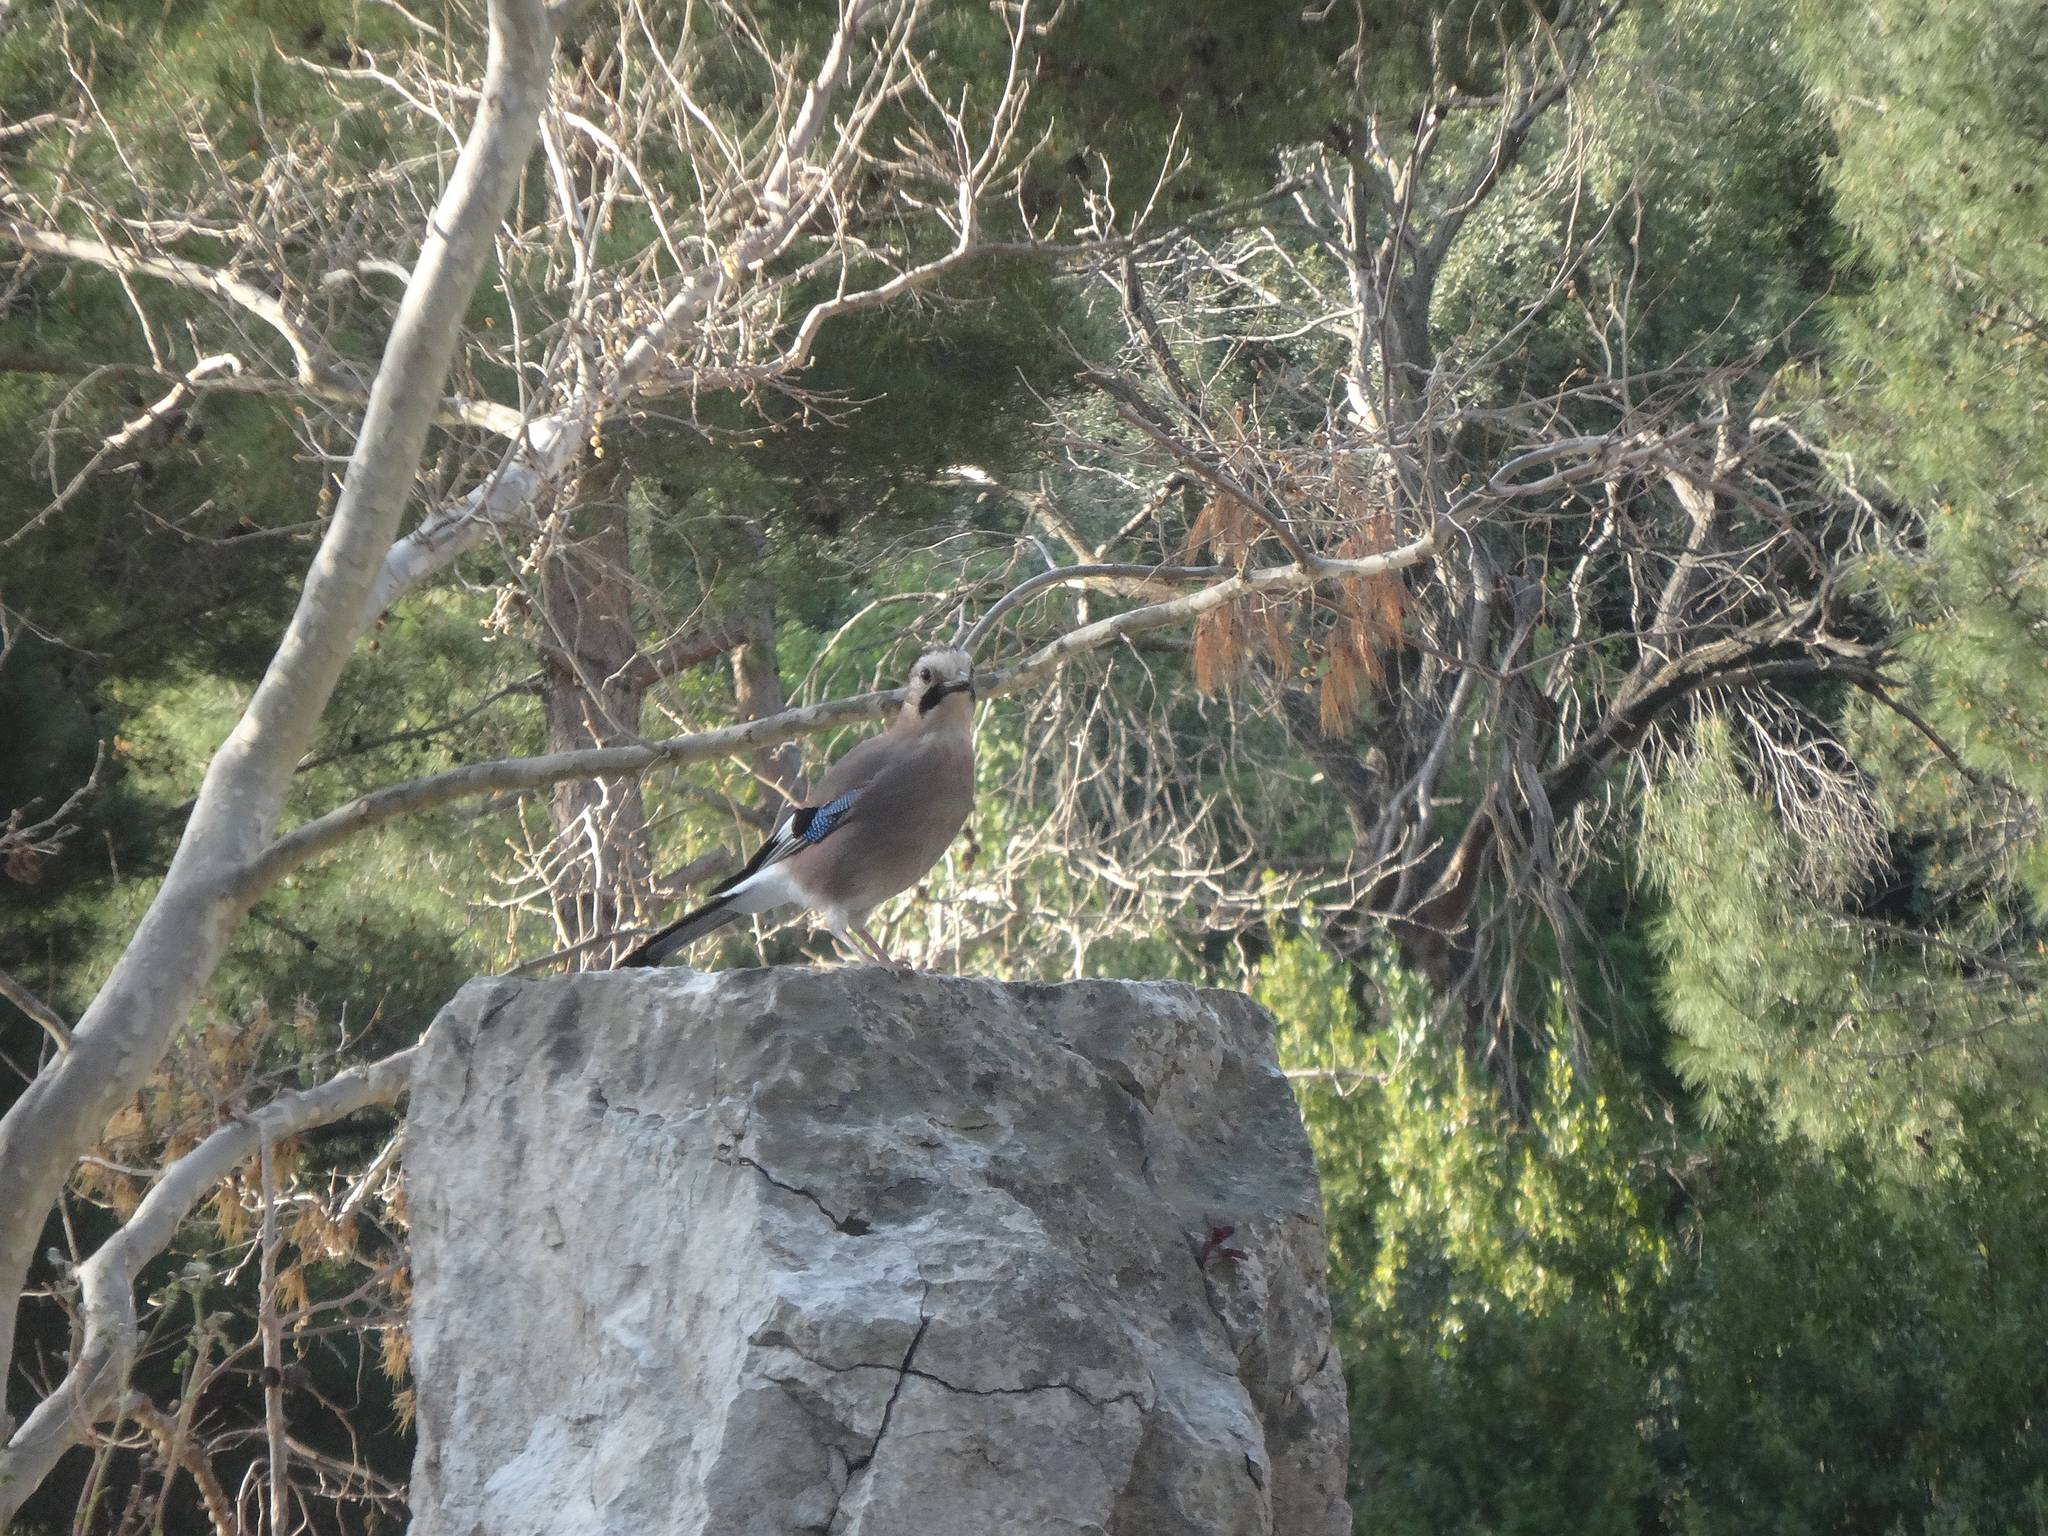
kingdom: Animalia
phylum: Chordata
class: Aves
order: Passeriformes
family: Corvidae
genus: Garrulus
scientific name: Garrulus glandarius
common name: Eurasian jay
